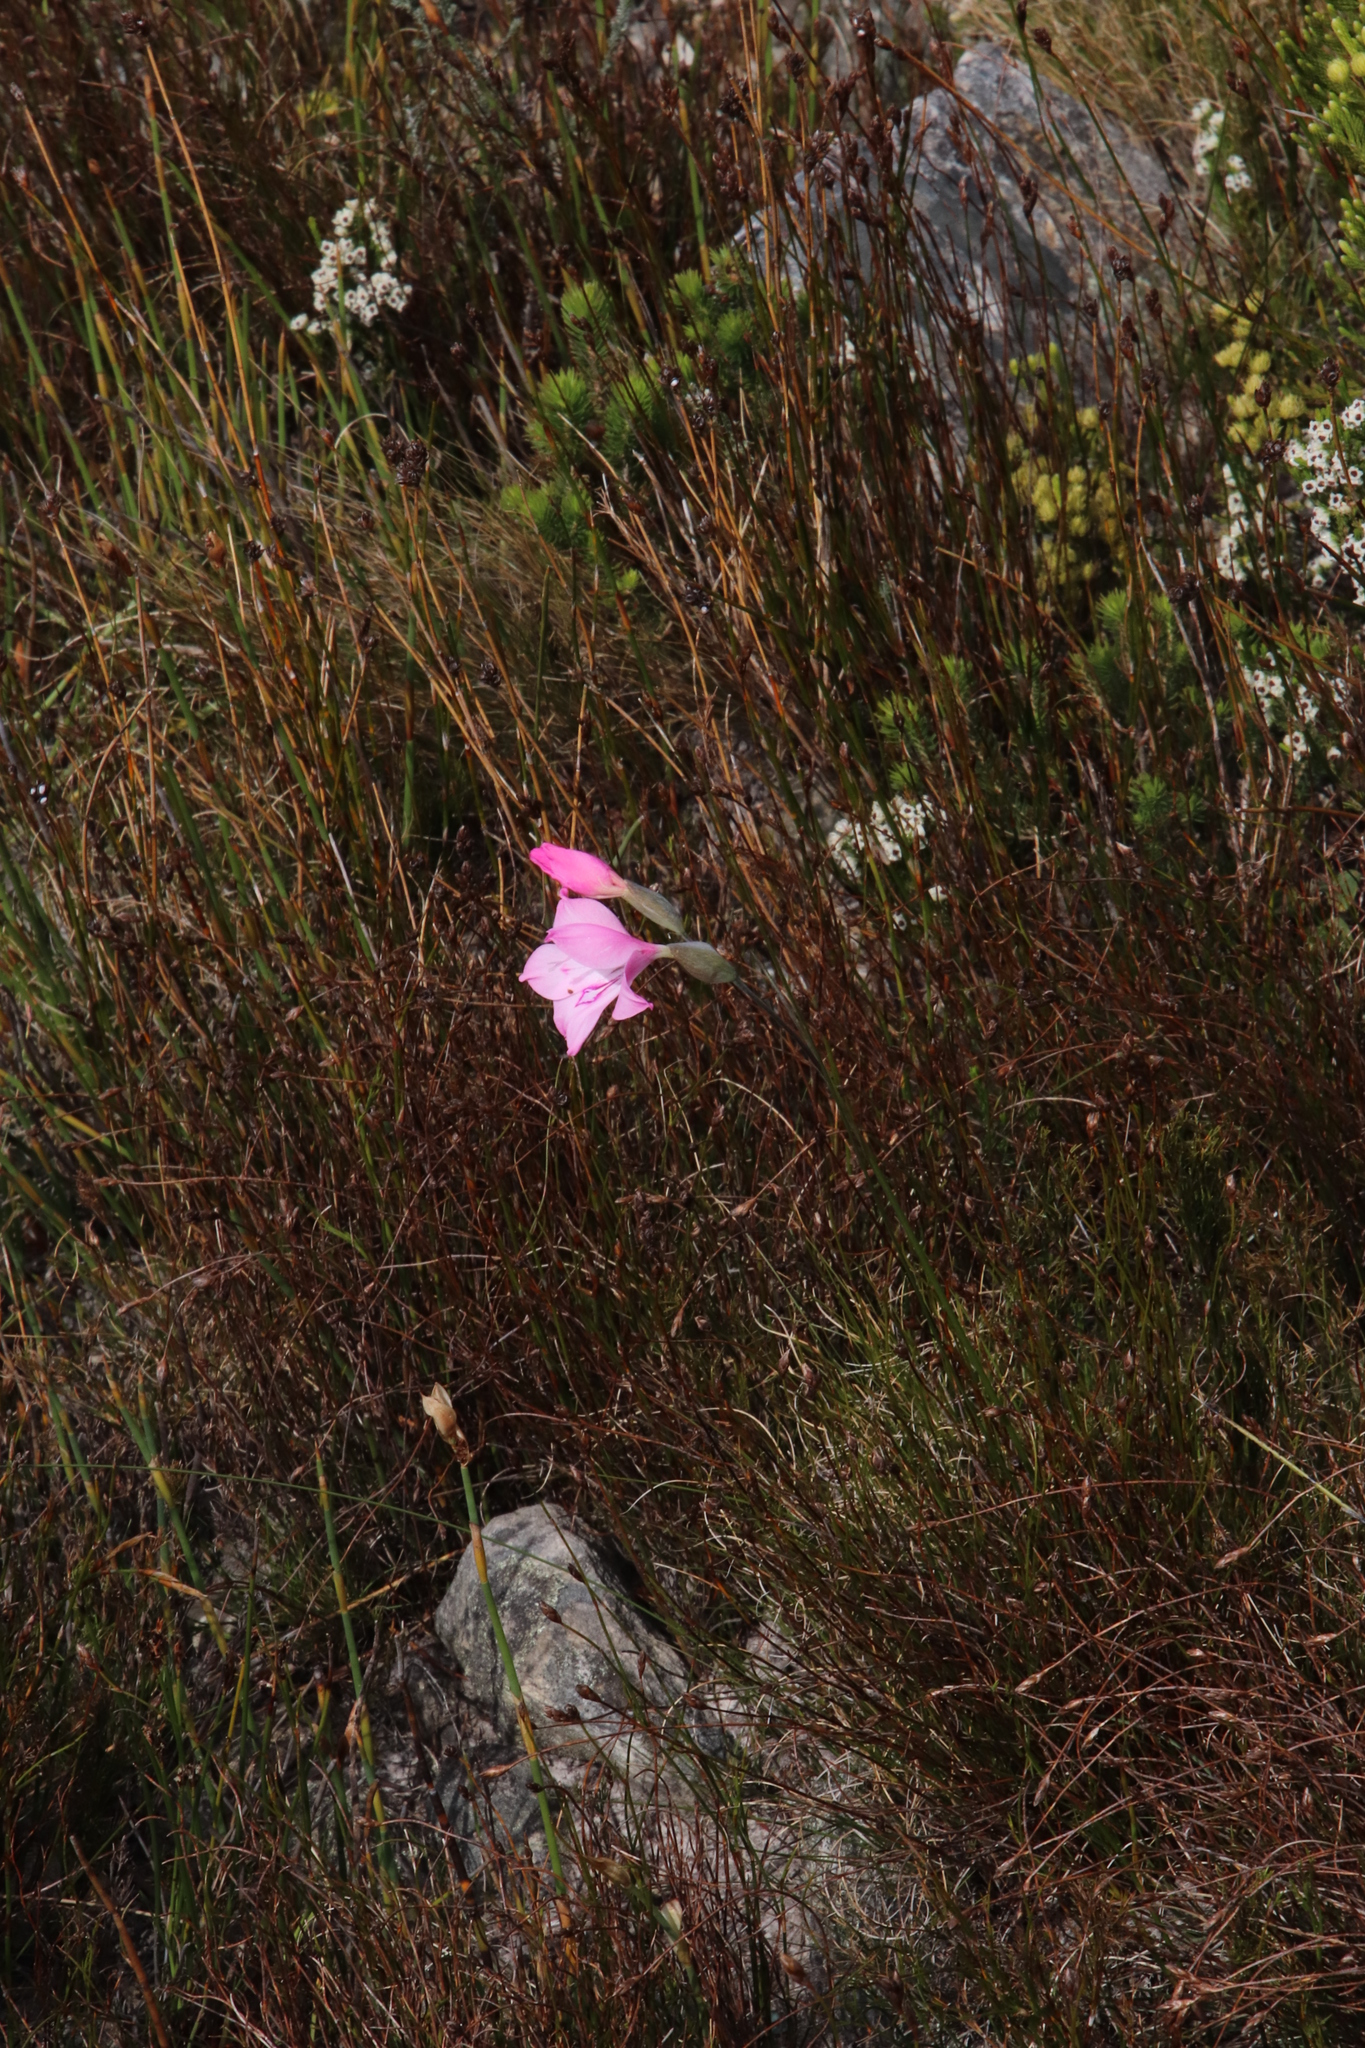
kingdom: Plantae
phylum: Tracheophyta
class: Liliopsida
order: Asparagales
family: Iridaceae
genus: Gladiolus
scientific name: Gladiolus inflatus
